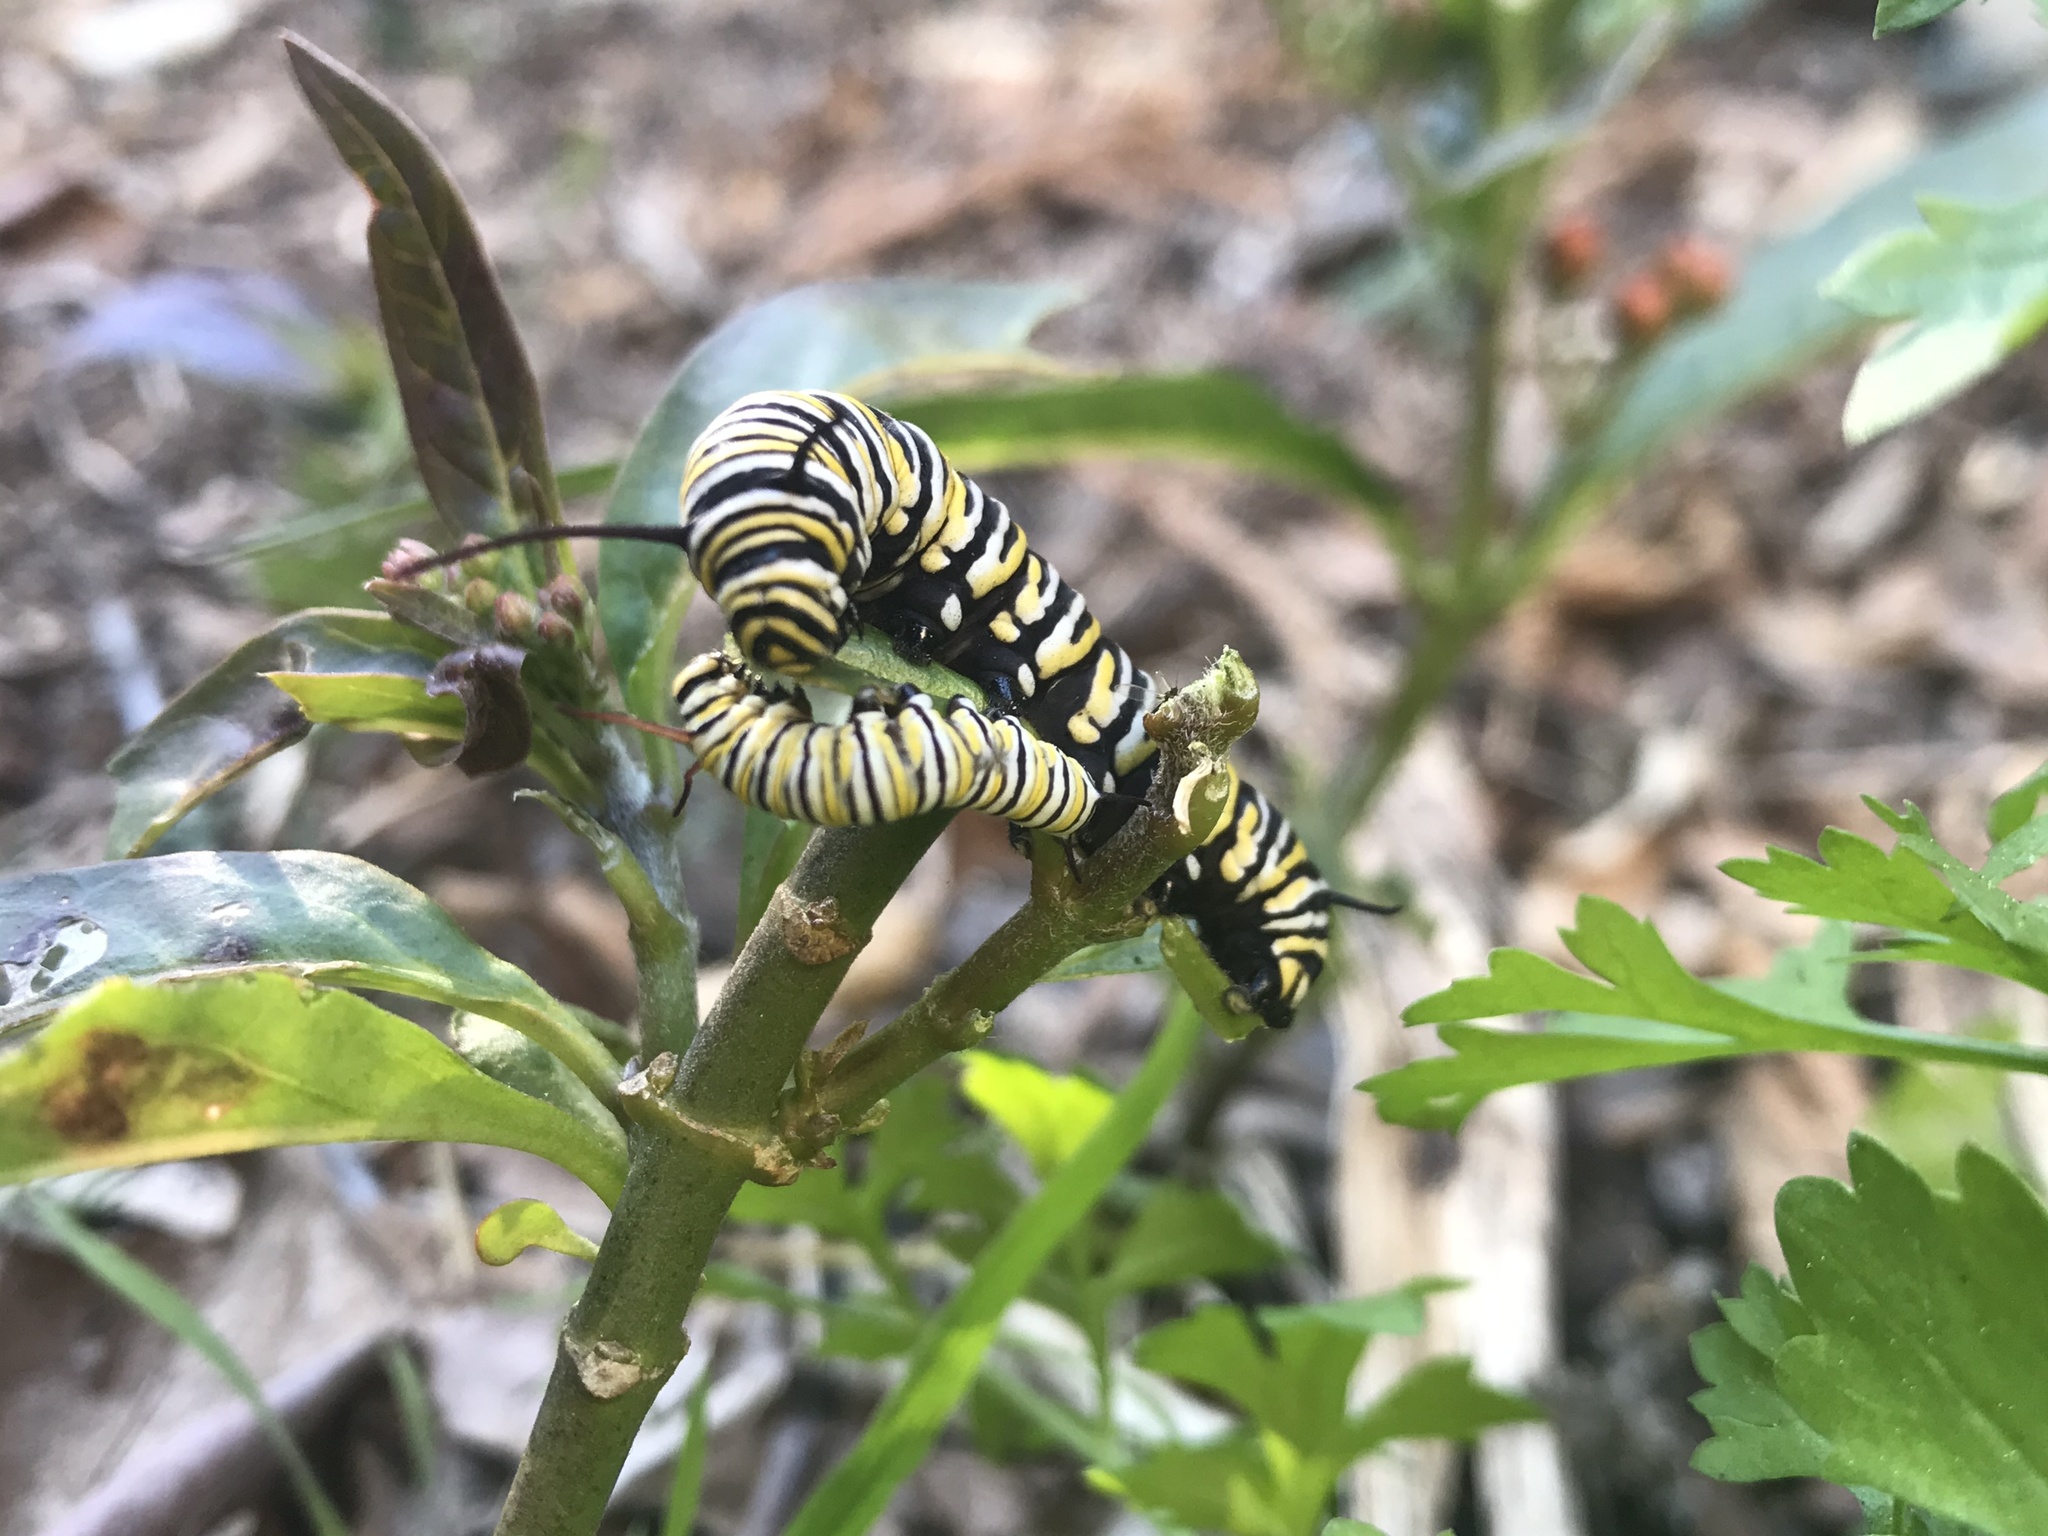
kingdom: Animalia
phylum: Arthropoda
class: Insecta
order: Lepidoptera
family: Nymphalidae
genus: Danaus
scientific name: Danaus plexippus
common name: Monarch
